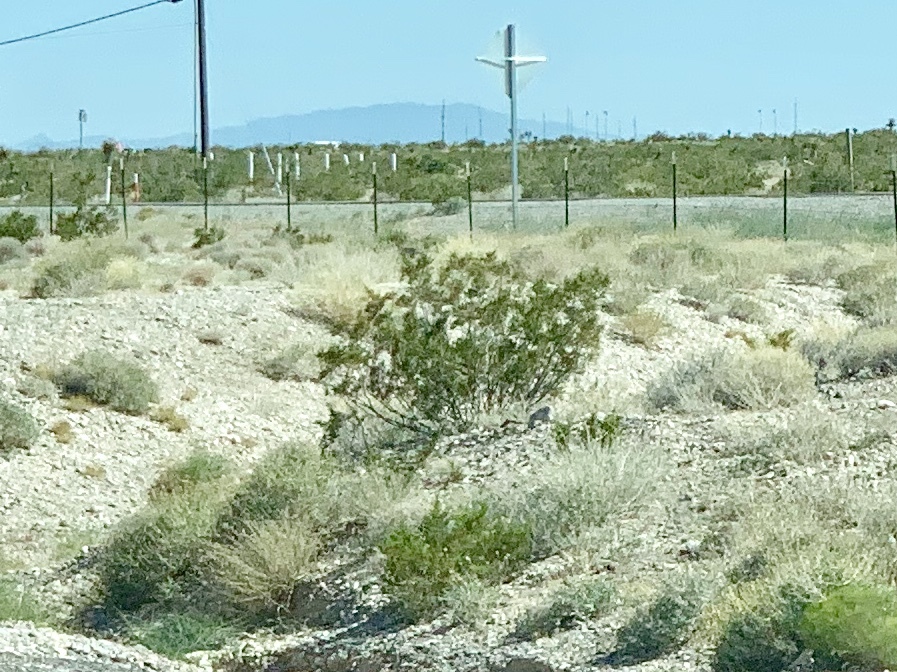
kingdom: Plantae
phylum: Tracheophyta
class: Magnoliopsida
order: Zygophyllales
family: Zygophyllaceae
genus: Larrea
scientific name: Larrea tridentata
